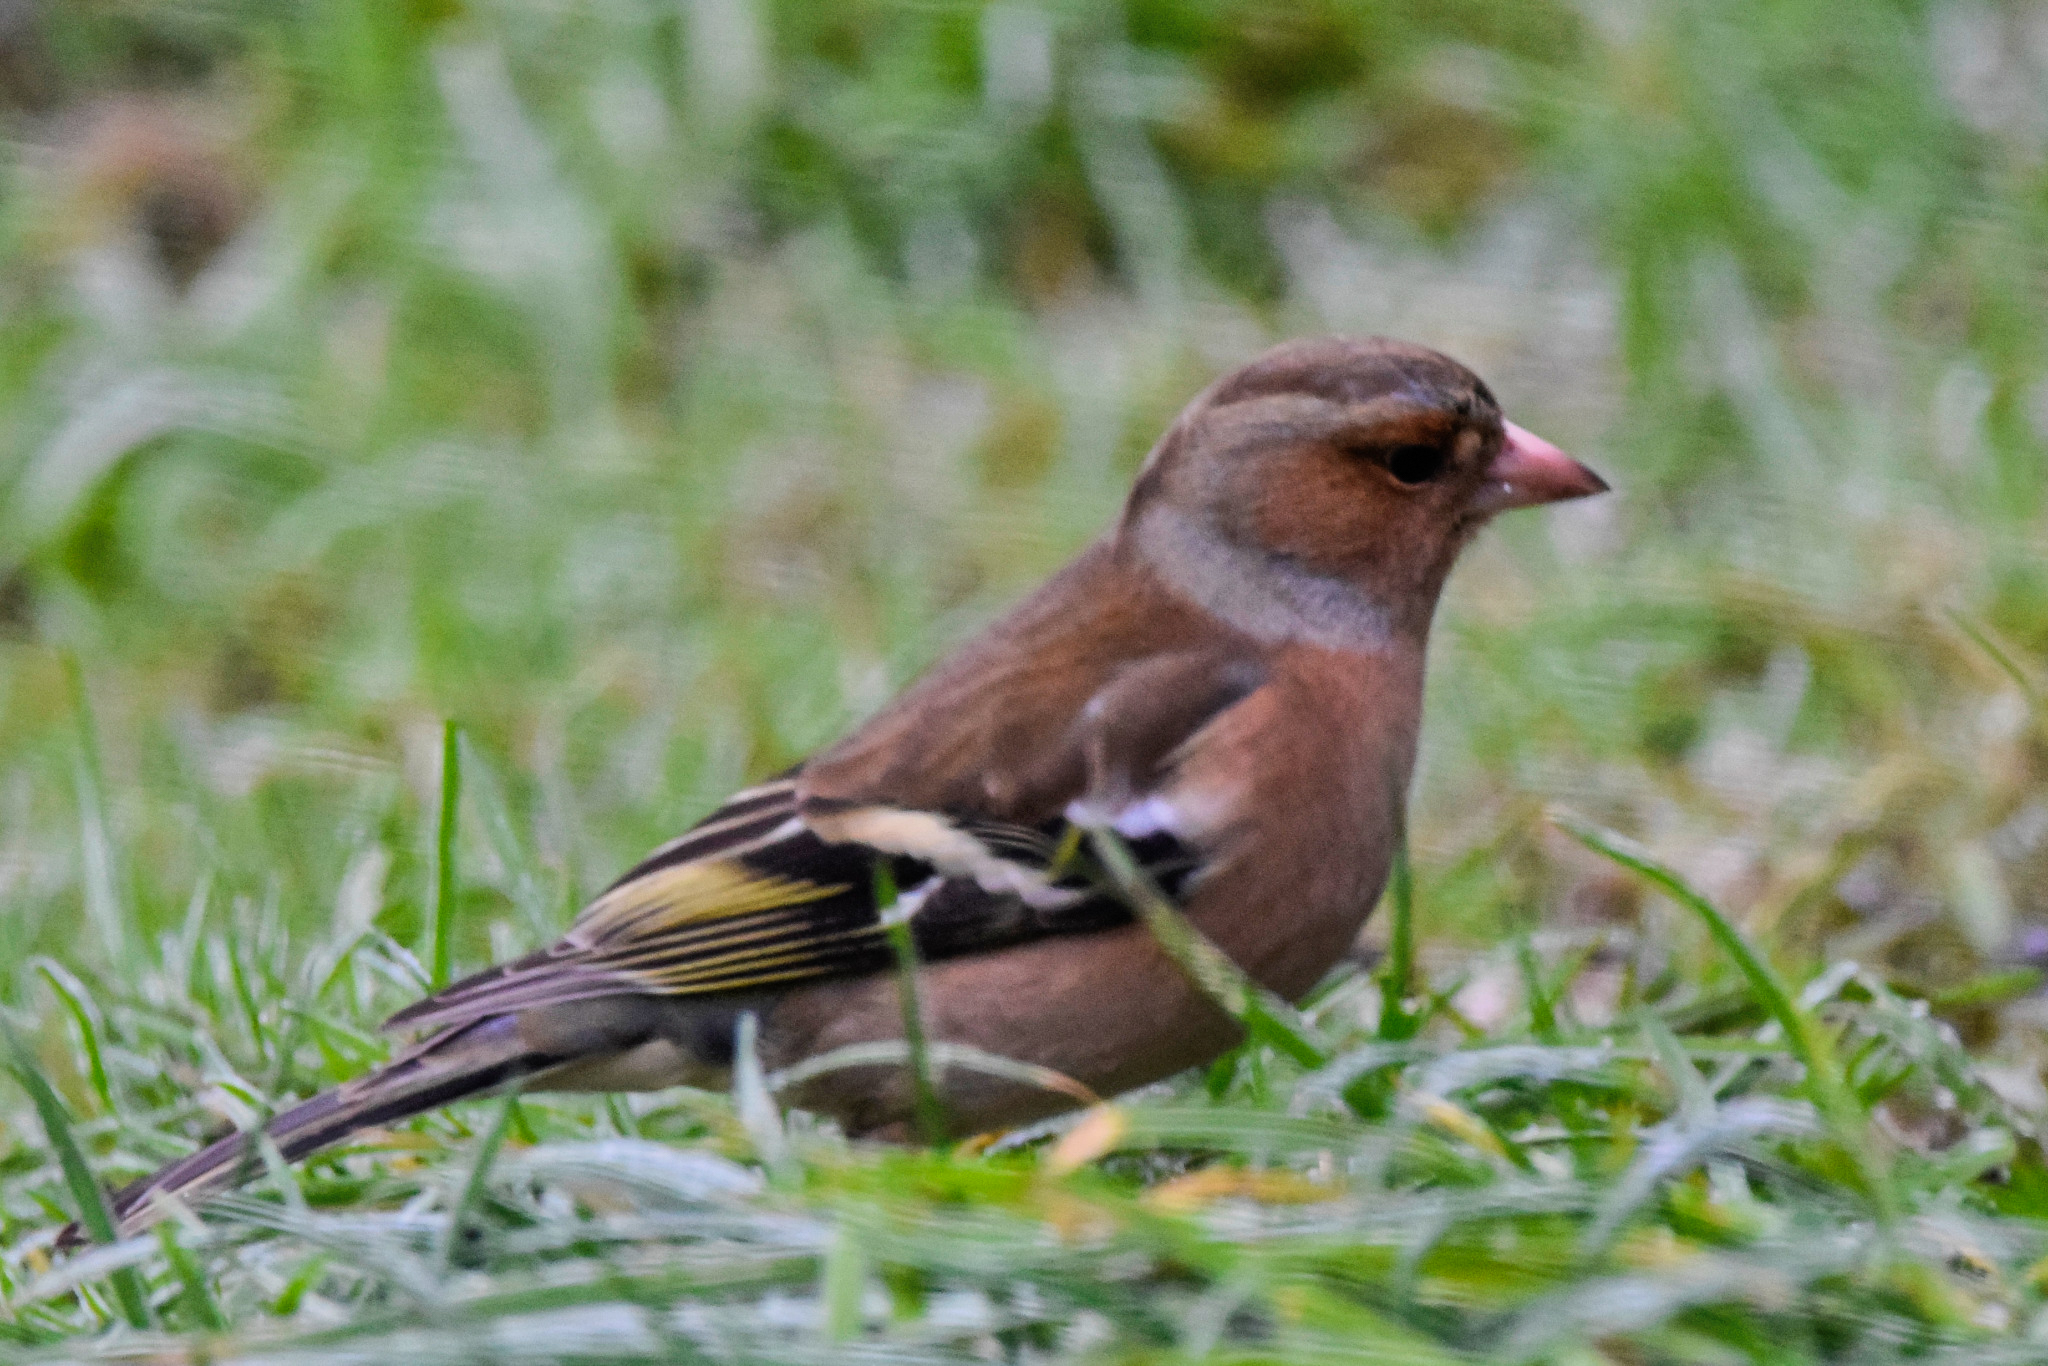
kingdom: Animalia
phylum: Chordata
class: Aves
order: Passeriformes
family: Fringillidae
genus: Fringilla
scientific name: Fringilla coelebs
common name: Common chaffinch
